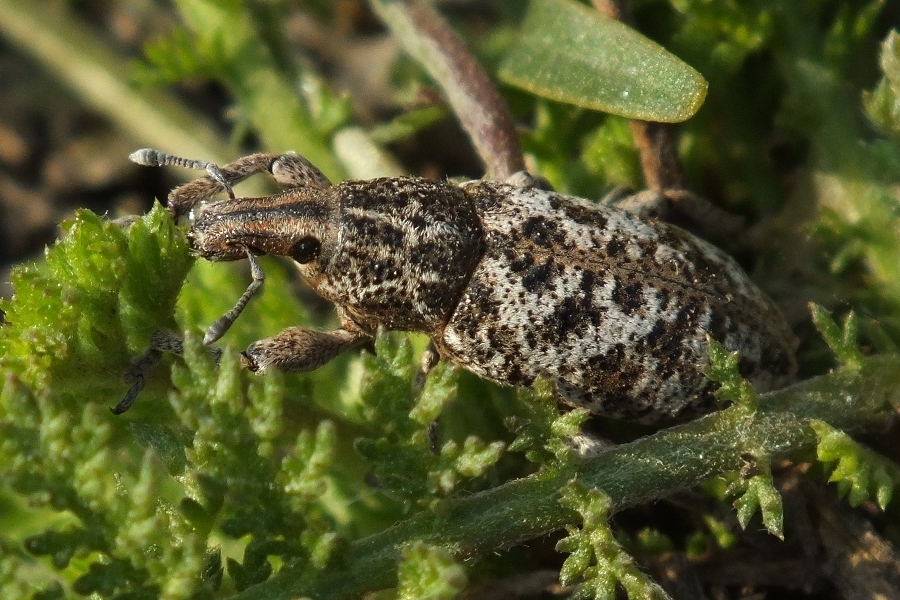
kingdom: Animalia
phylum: Arthropoda
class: Insecta
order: Coleoptera
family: Curculionidae
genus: Cyphocleonus
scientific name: Cyphocleonus dealbatus
